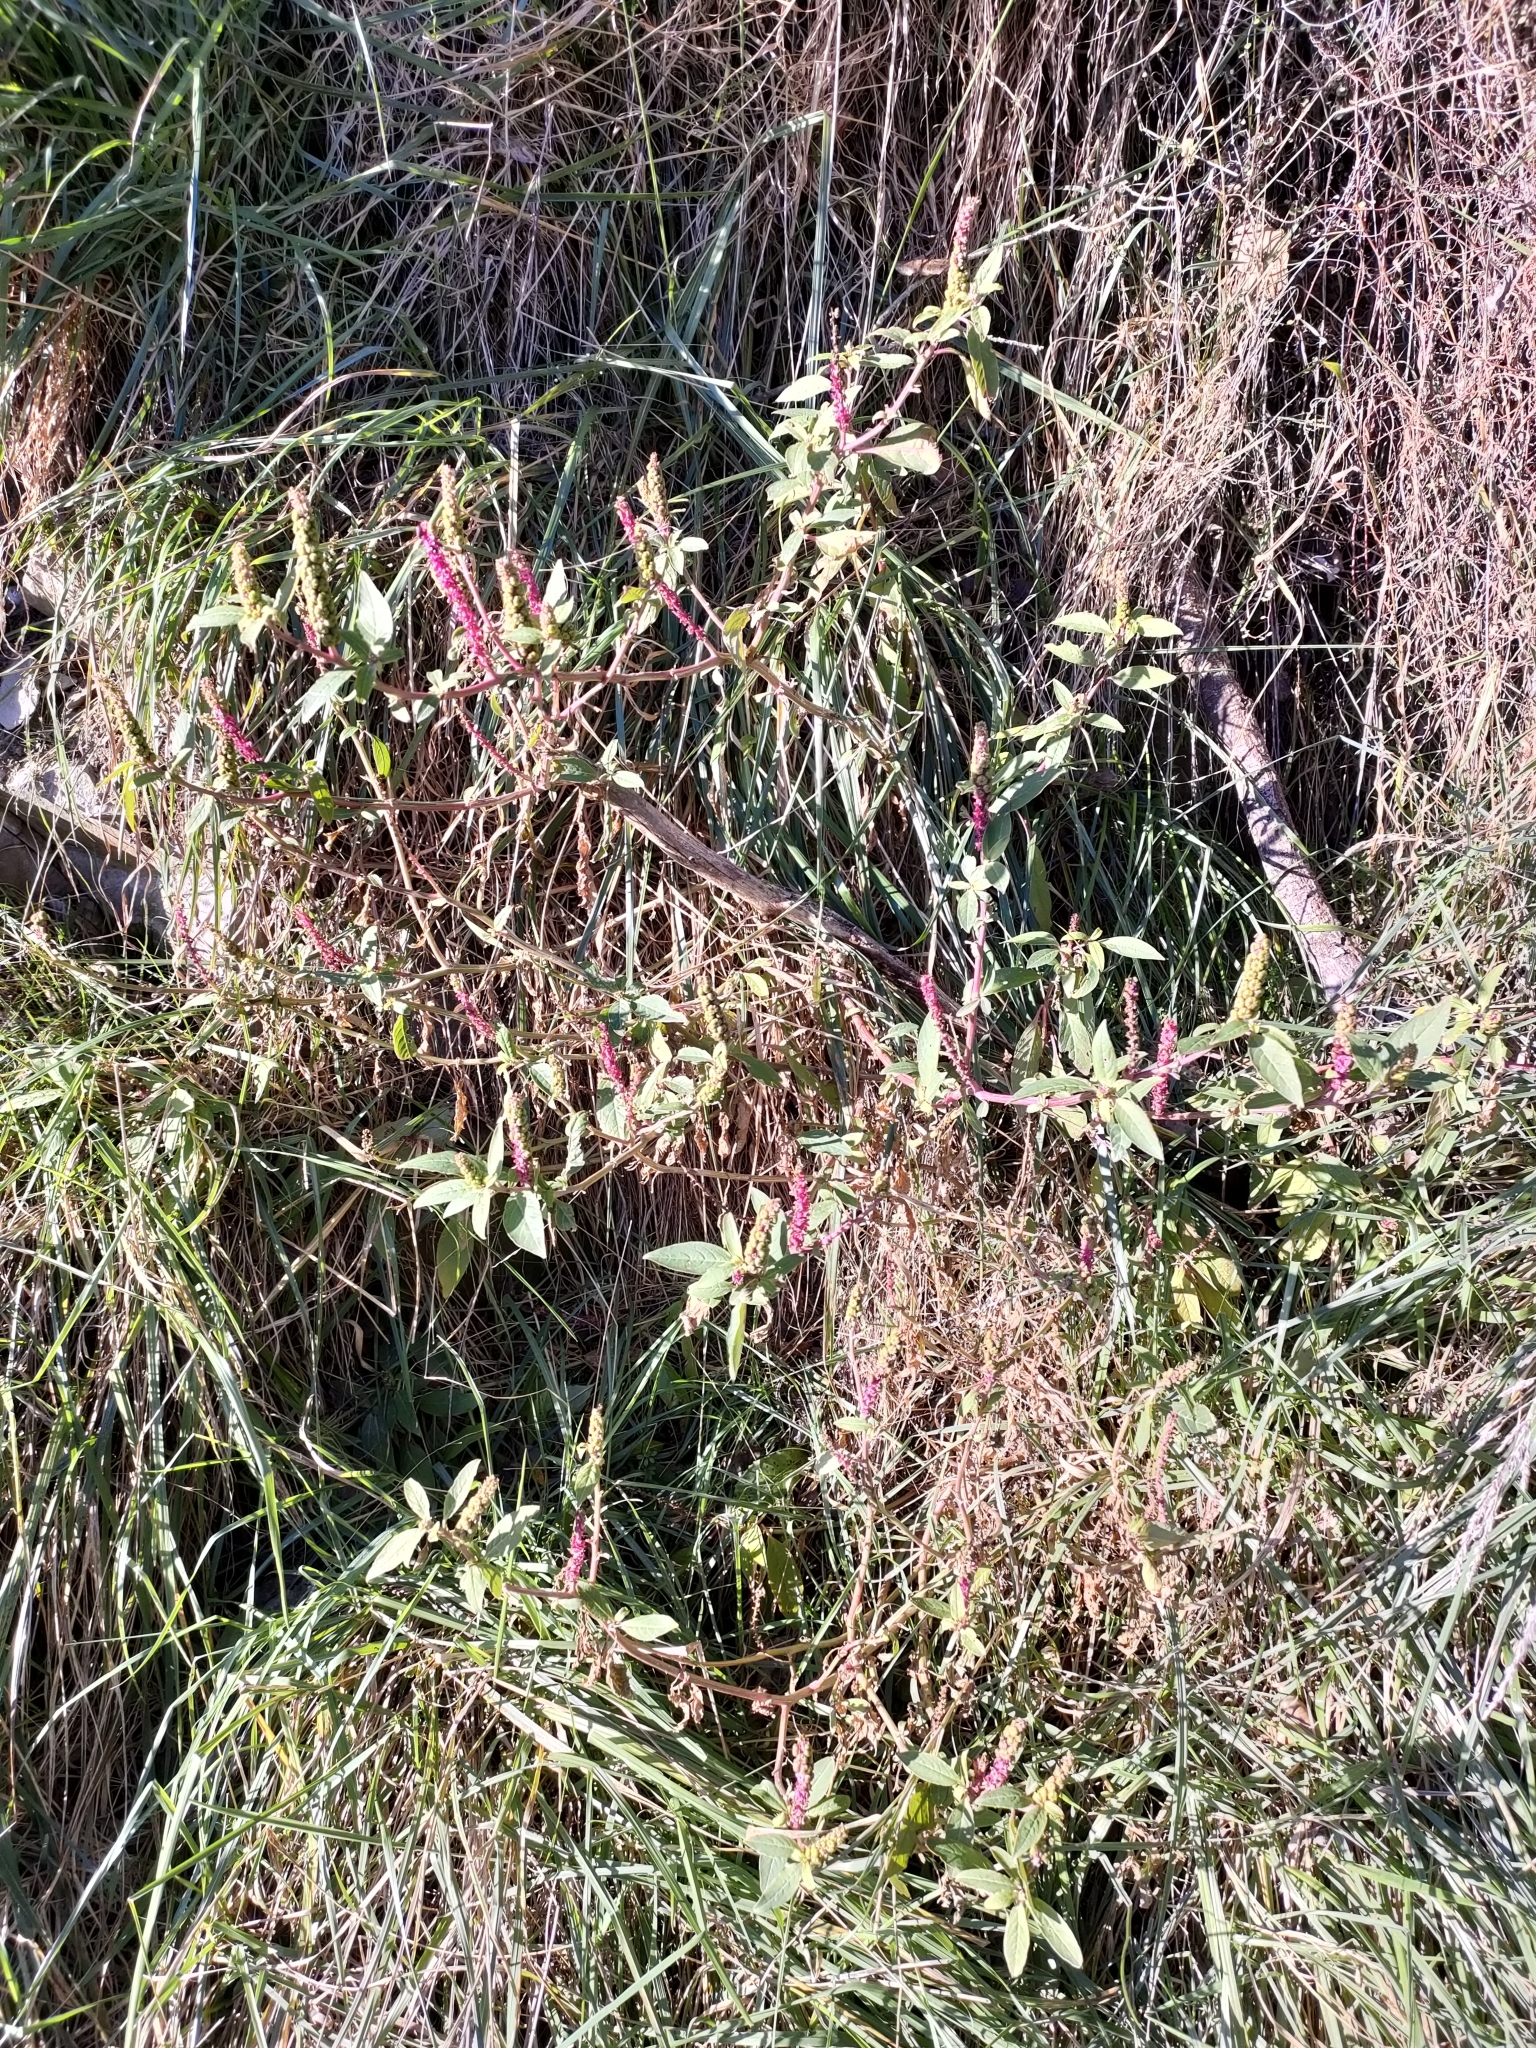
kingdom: Plantae
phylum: Tracheophyta
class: Magnoliopsida
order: Caryophyllales
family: Phytolaccaceae
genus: Phytolacca
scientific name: Phytolacca icosandra
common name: Button pokeweed
